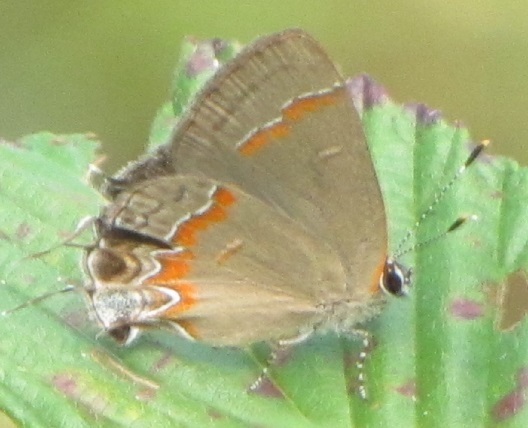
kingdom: Animalia
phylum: Arthropoda
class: Insecta
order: Lepidoptera
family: Lycaenidae
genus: Calycopis
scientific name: Calycopis cecrops
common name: Red-banded hairstreak
